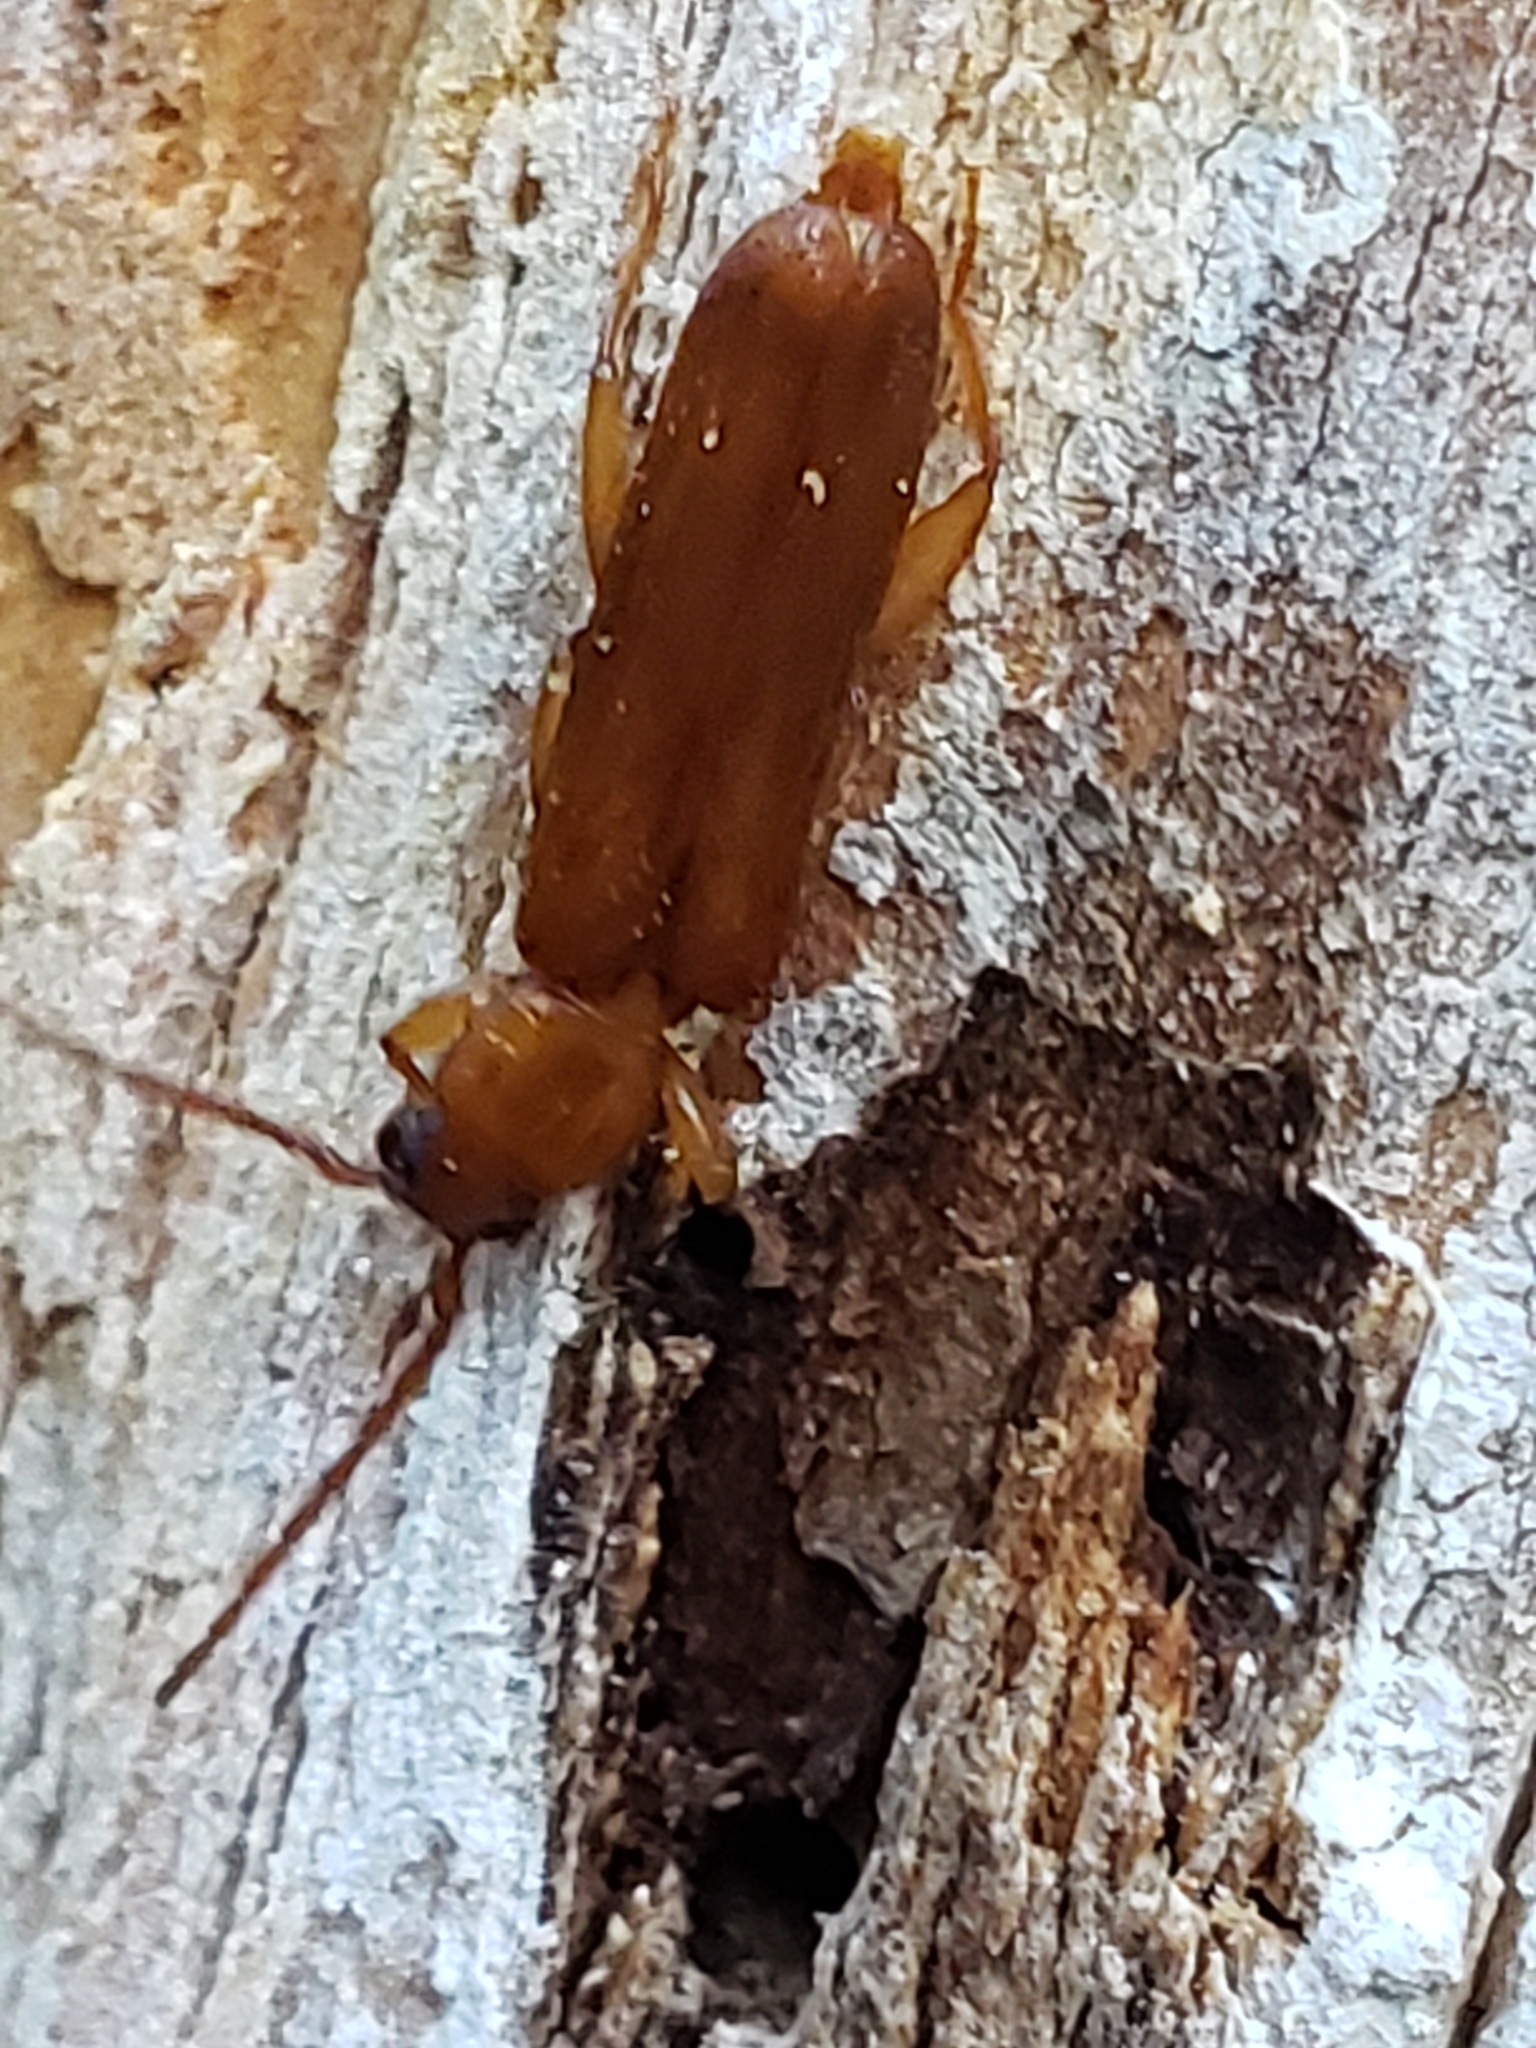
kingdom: Animalia
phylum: Arthropoda
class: Insecta
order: Coleoptera
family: Cerambycidae
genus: Smodicum
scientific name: Smodicum cucujiforme
